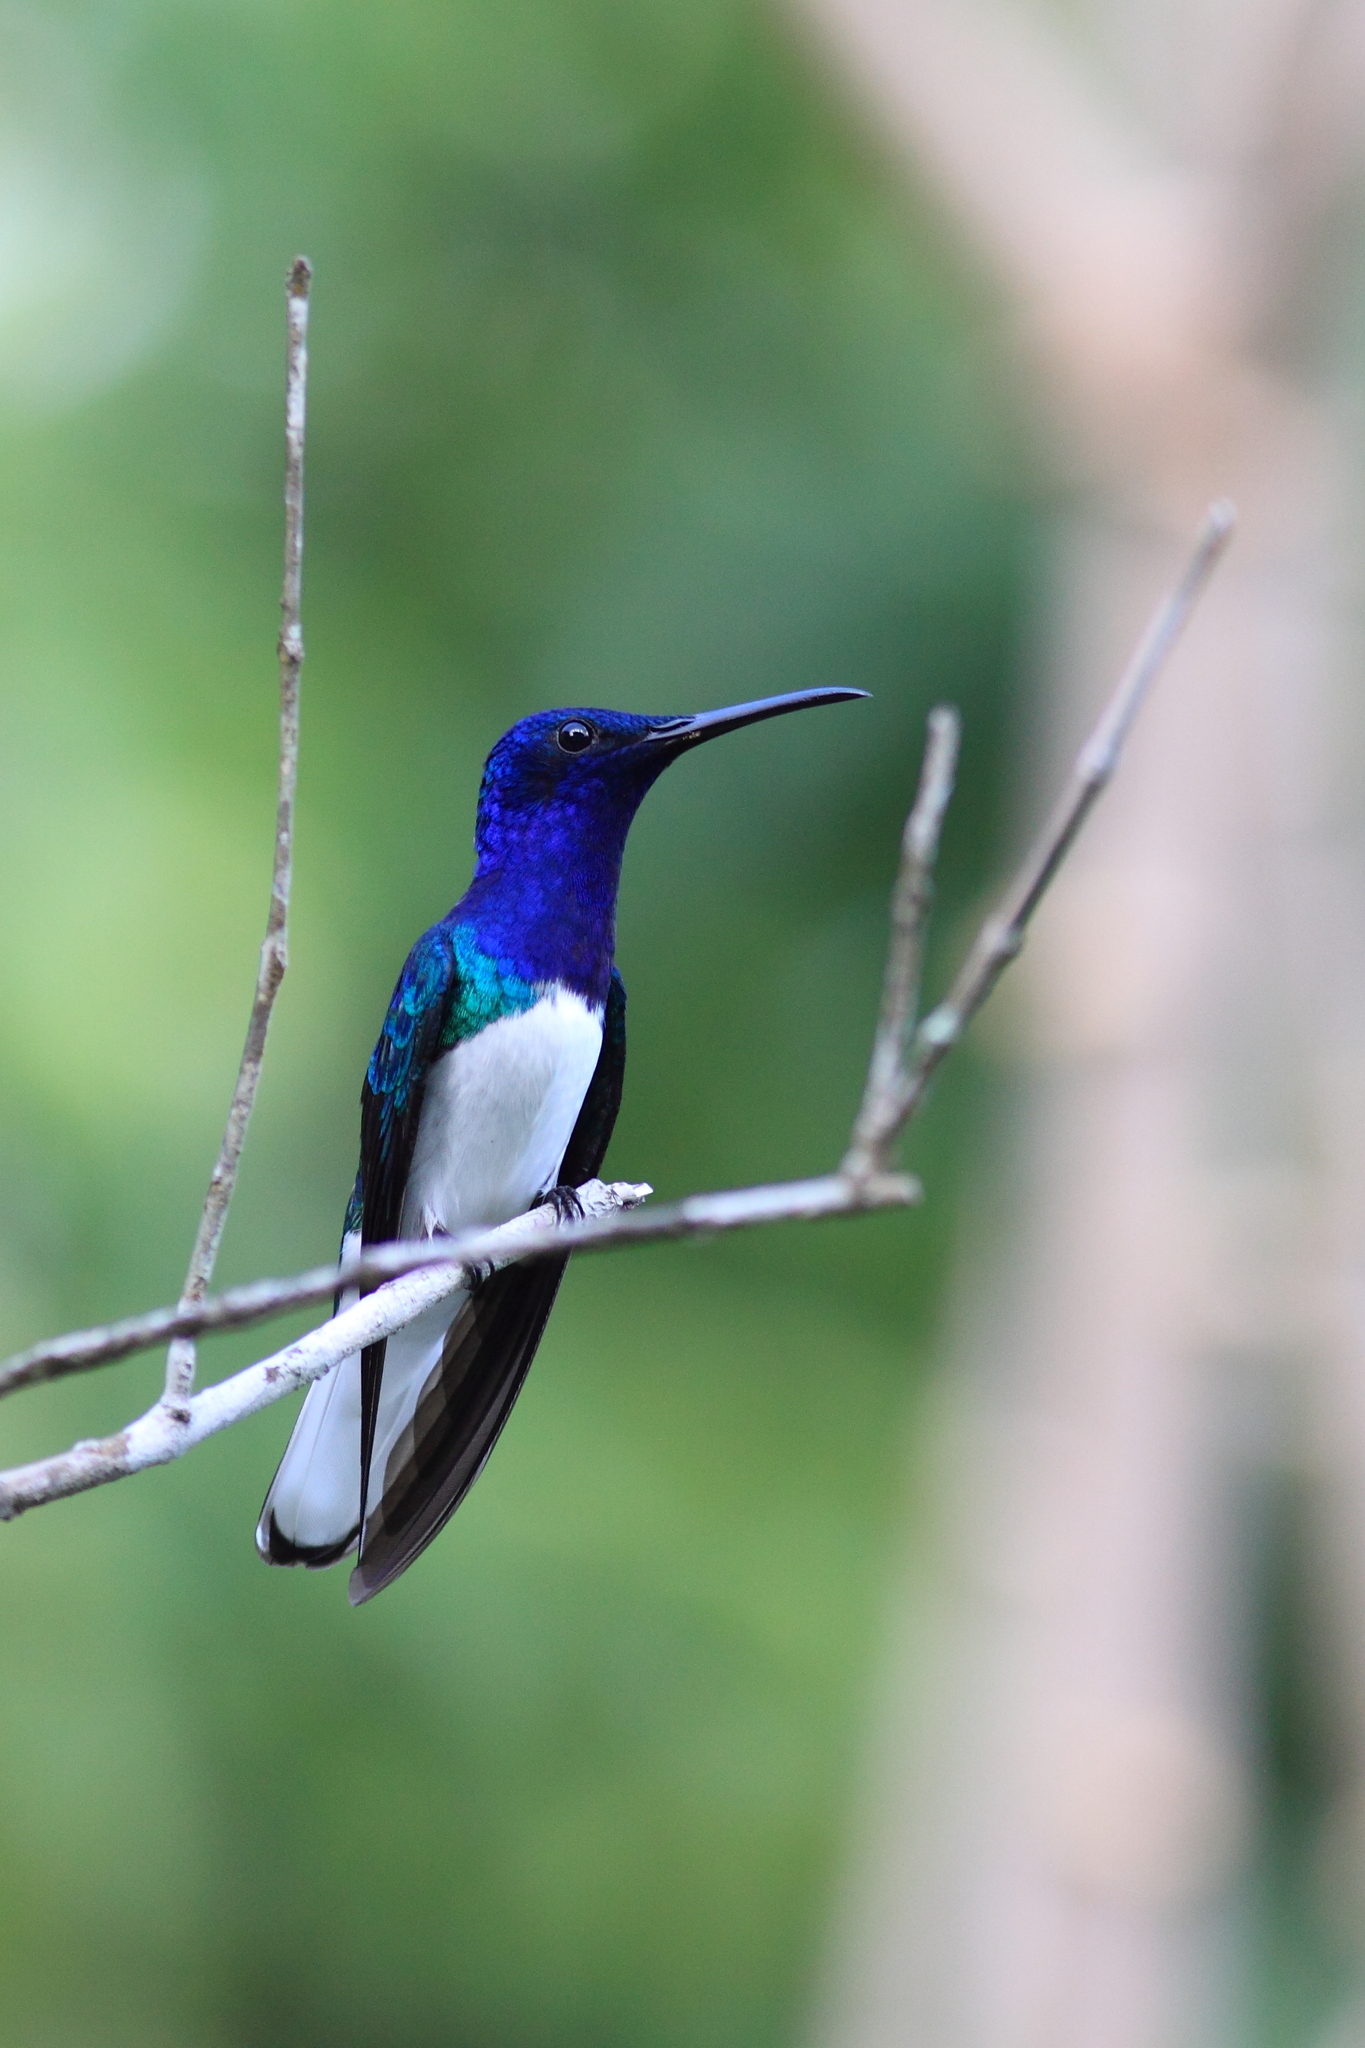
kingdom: Animalia
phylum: Chordata
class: Aves
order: Apodiformes
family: Trochilidae
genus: Florisuga
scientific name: Florisuga mellivora
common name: White-necked jacobin
